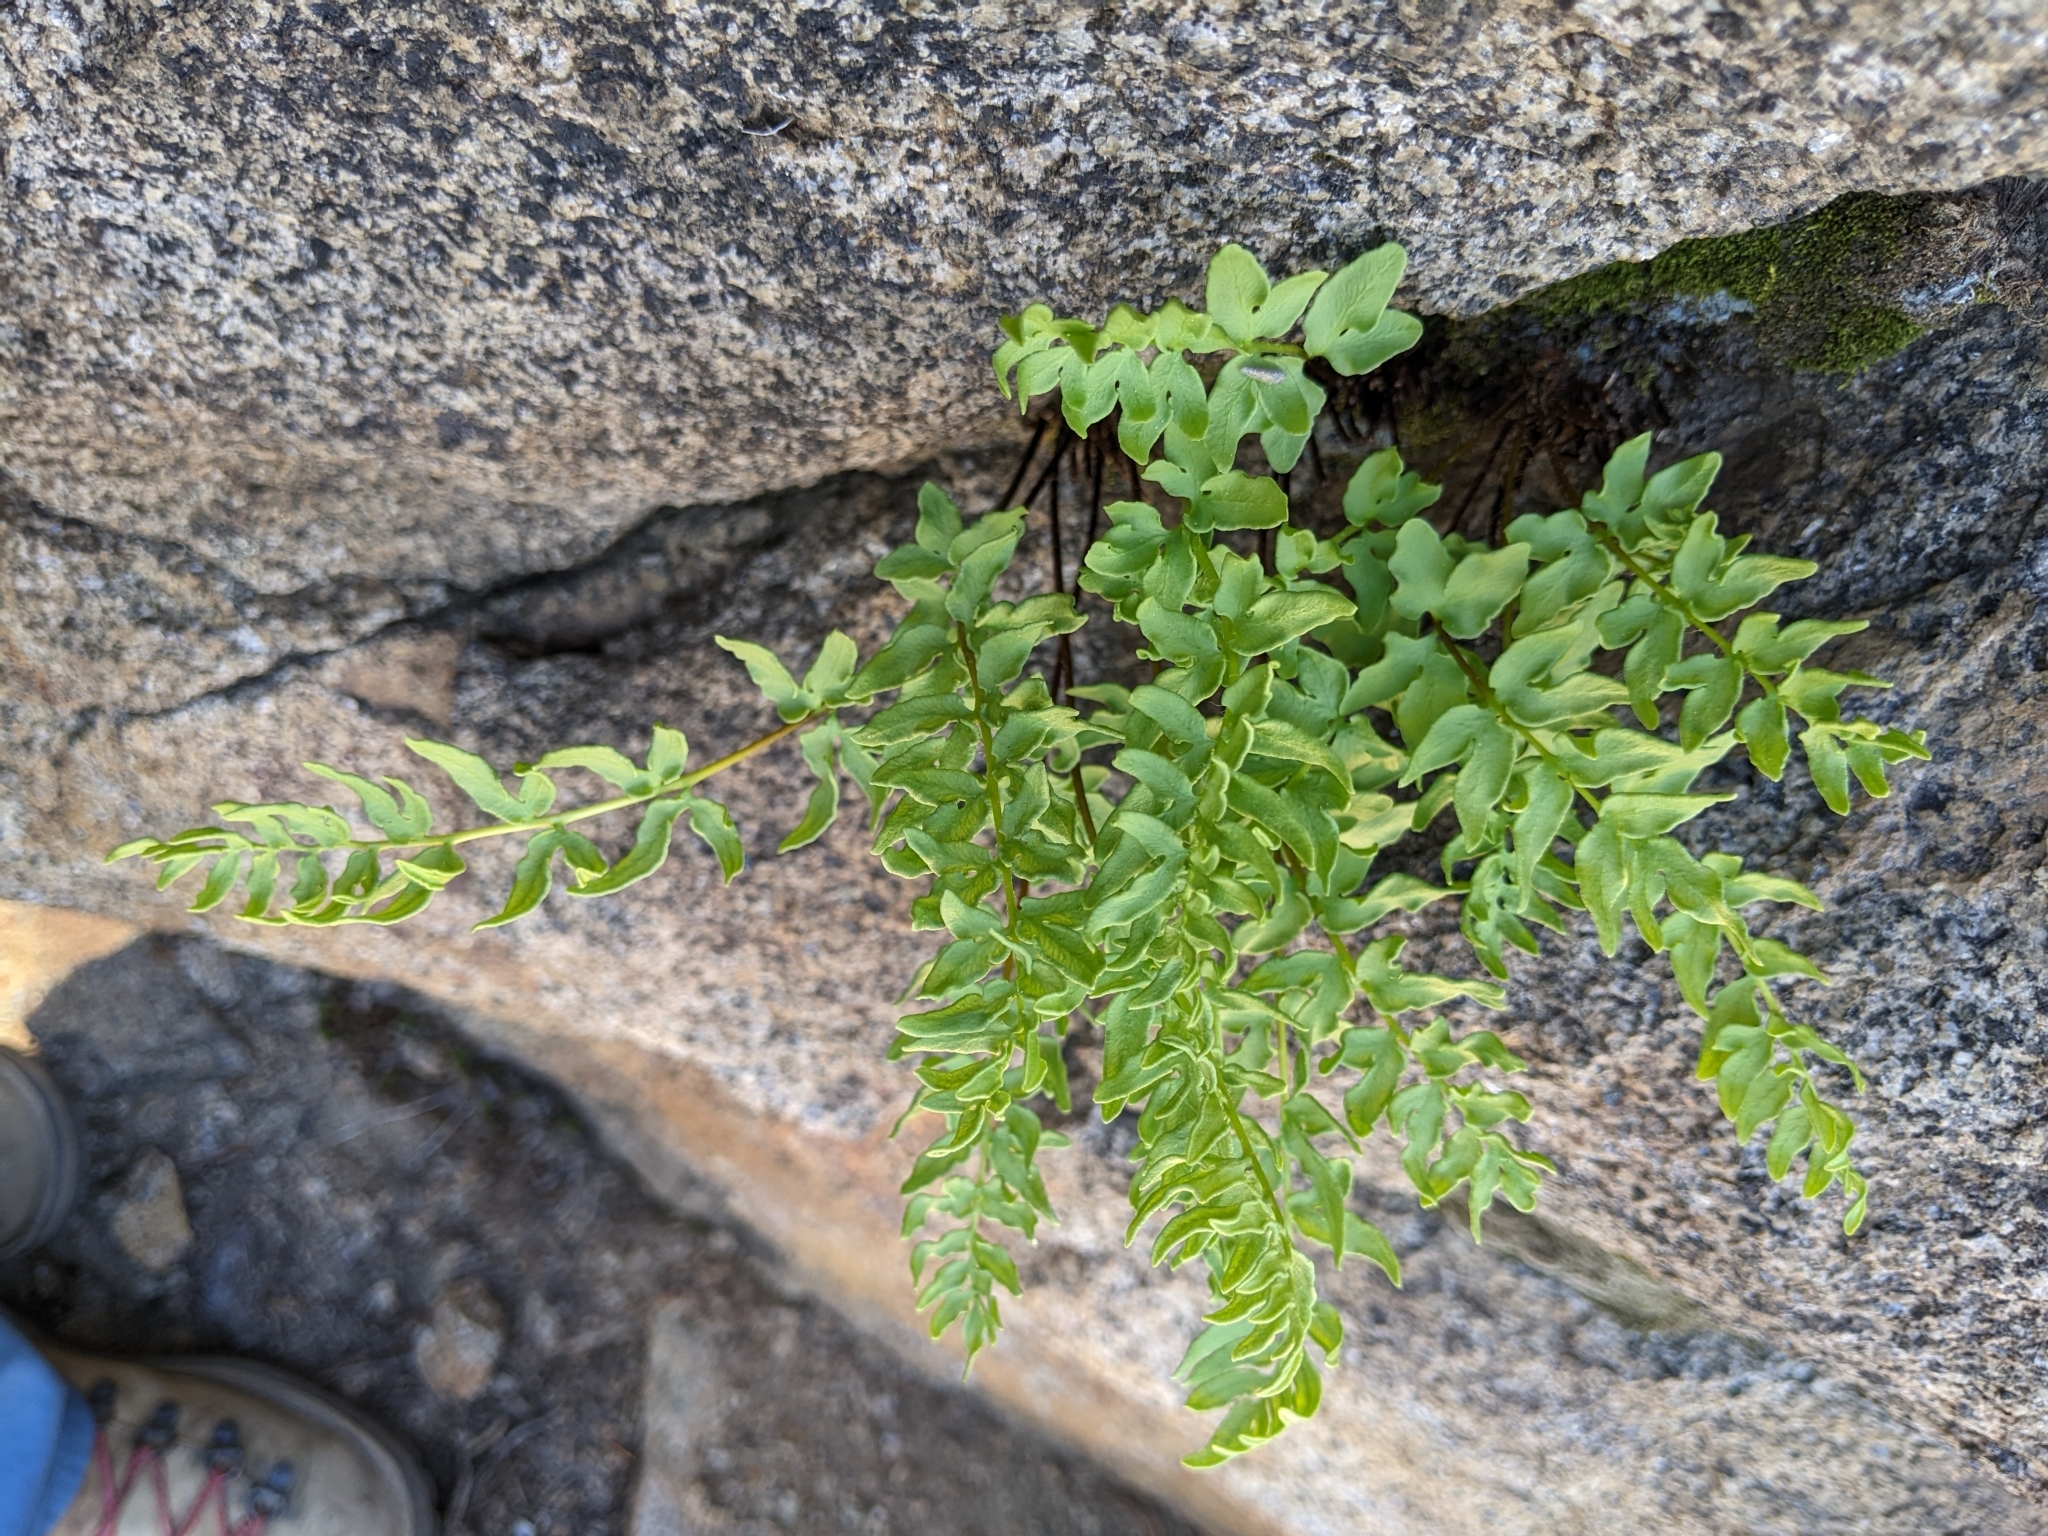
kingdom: Plantae
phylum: Tracheophyta
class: Polypodiopsida
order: Polypodiales
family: Pteridaceae
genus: Pellaea
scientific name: Pellaea breweri
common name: Brewer's cliffbrake
